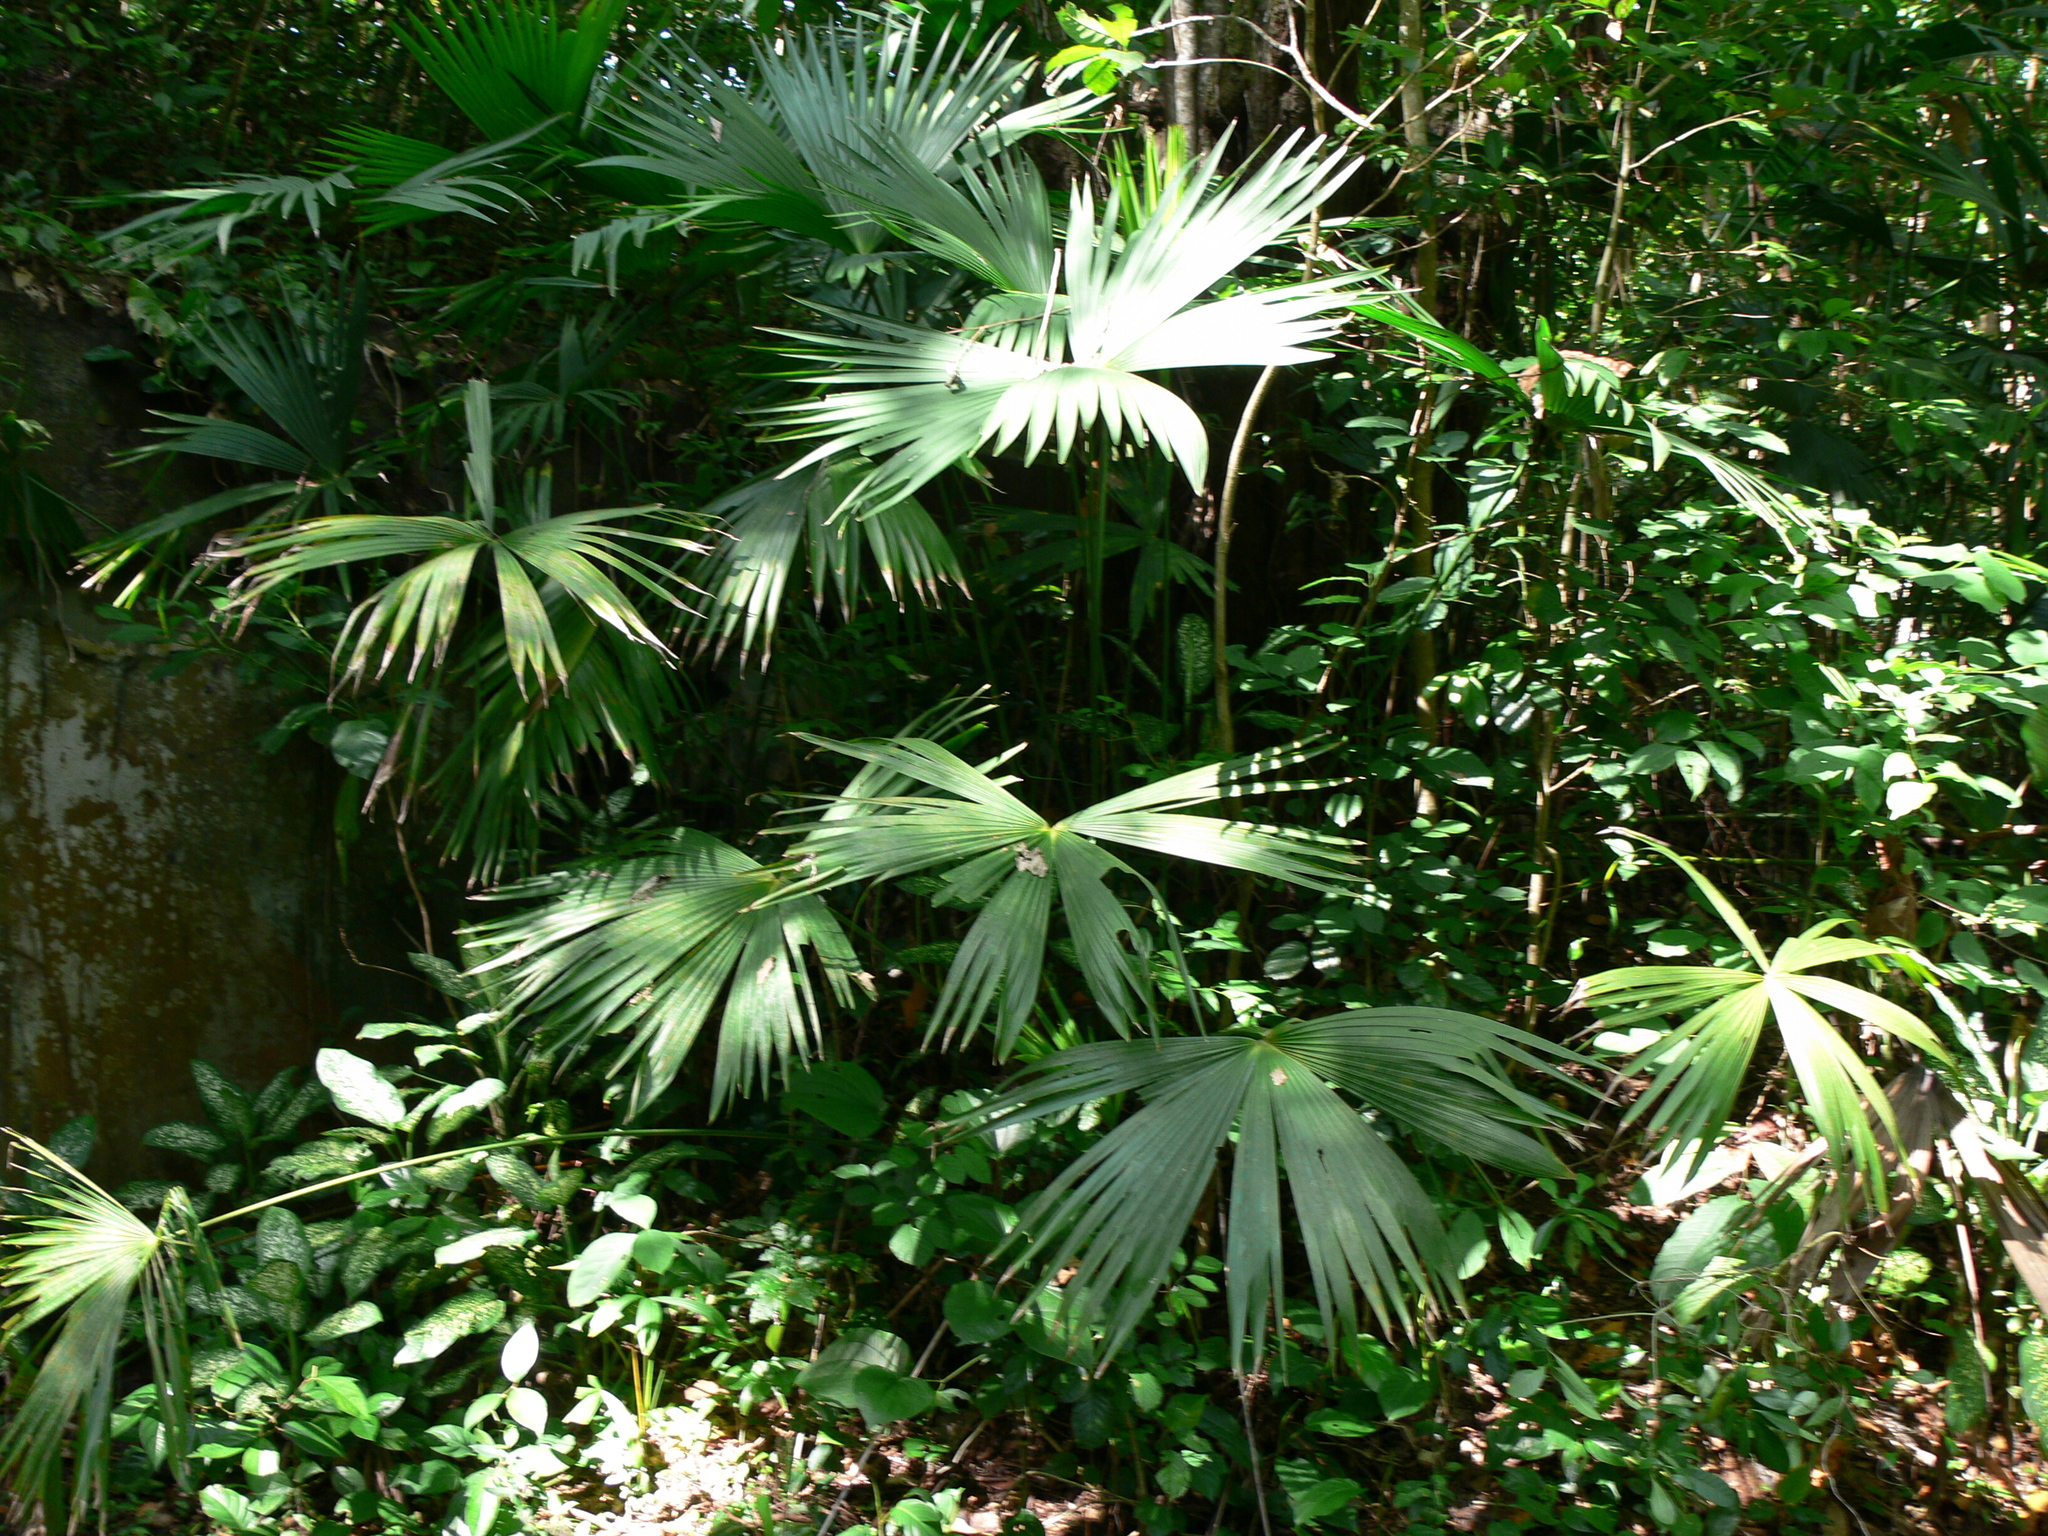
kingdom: Plantae
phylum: Tracheophyta
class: Liliopsida
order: Pandanales
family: Cyclanthaceae
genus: Carludovica
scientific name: Carludovica palmata
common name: Panama hat plant
